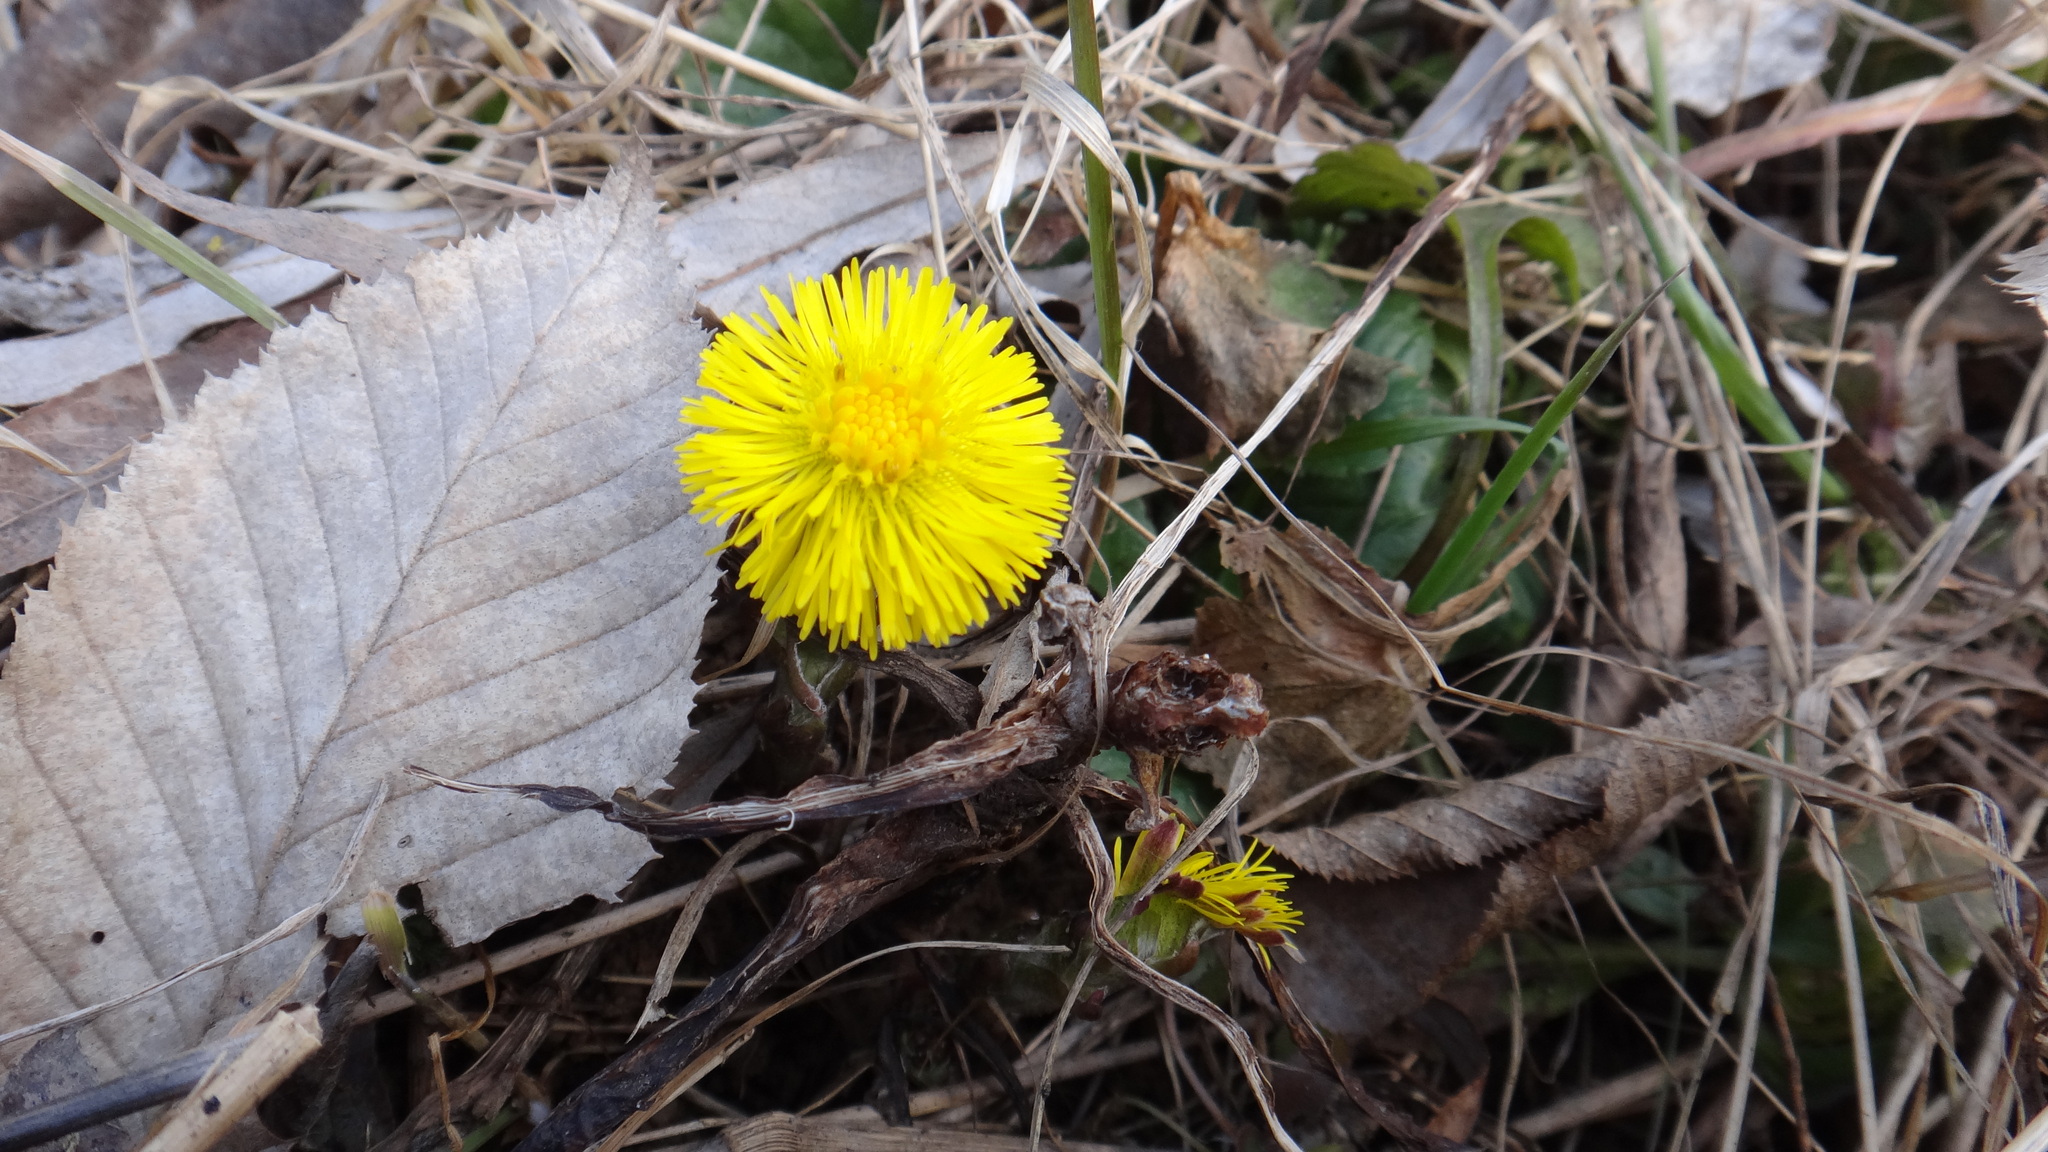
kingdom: Plantae
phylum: Tracheophyta
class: Magnoliopsida
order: Asterales
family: Asteraceae
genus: Tussilago
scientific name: Tussilago farfara
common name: Coltsfoot
